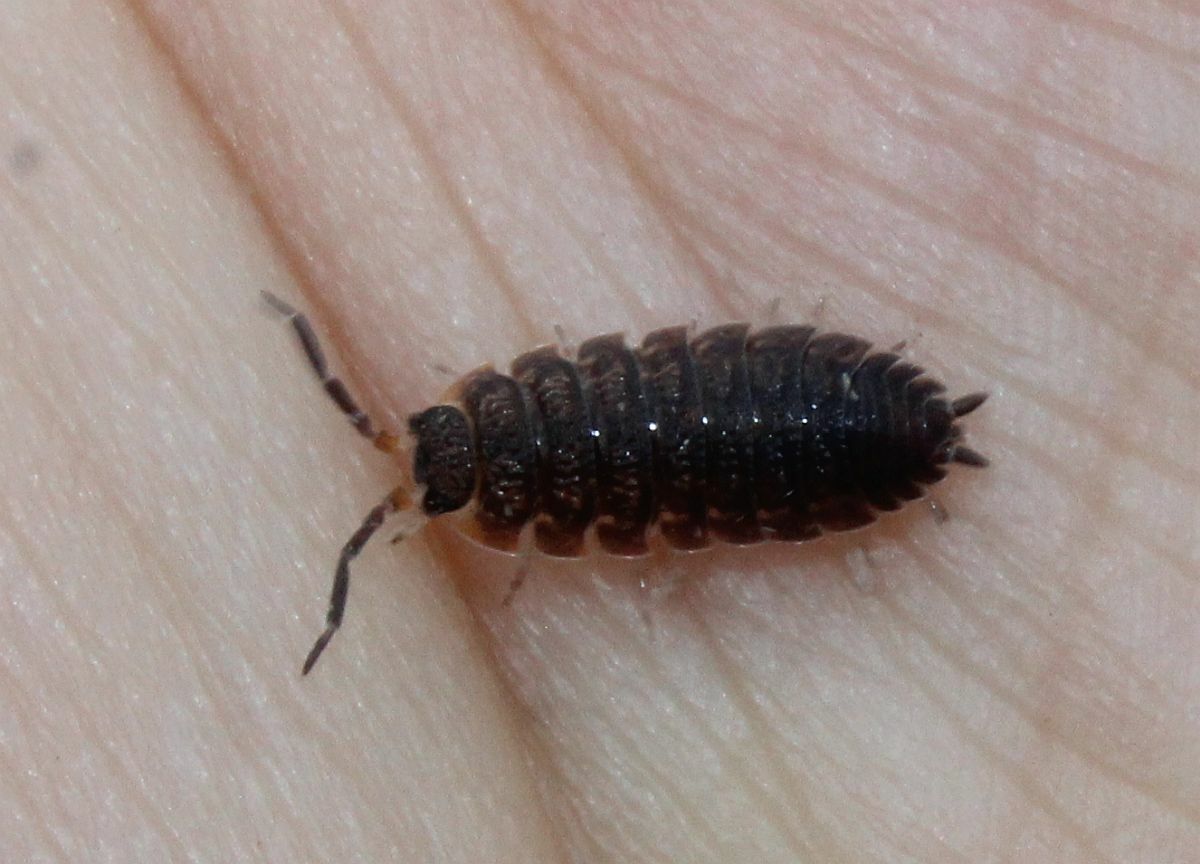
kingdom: Animalia
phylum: Arthropoda
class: Malacostraca
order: Isopoda
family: Porcellionidae
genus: Porcellio
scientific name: Porcellio scaber
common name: Common rough woodlouse
